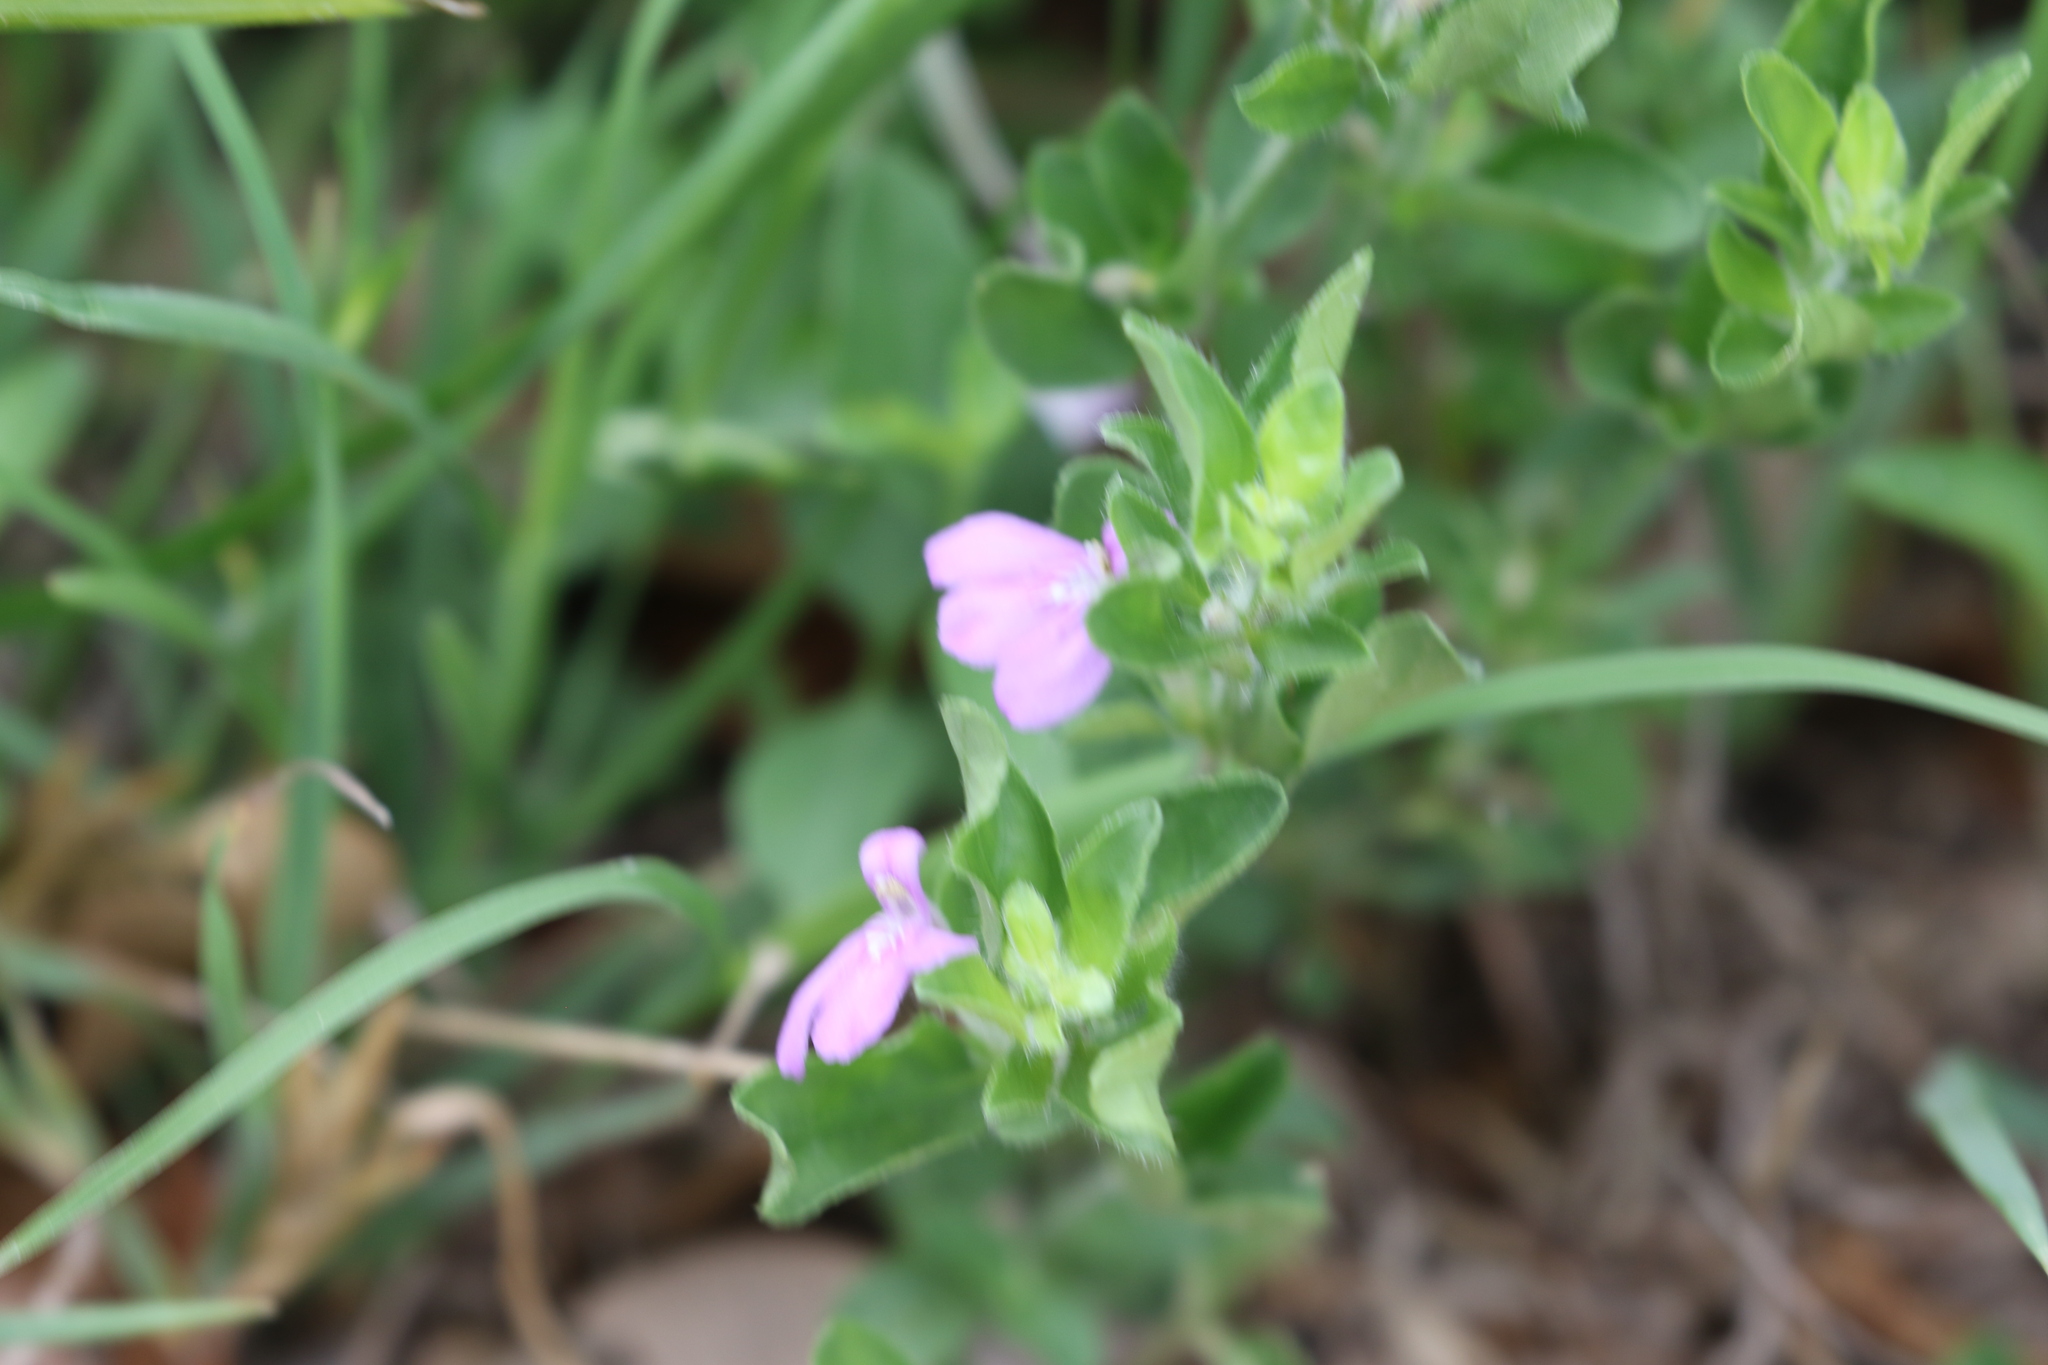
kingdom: Plantae
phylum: Tracheophyta
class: Magnoliopsida
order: Lamiales
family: Acanthaceae
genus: Justicia
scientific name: Justicia pilosella
